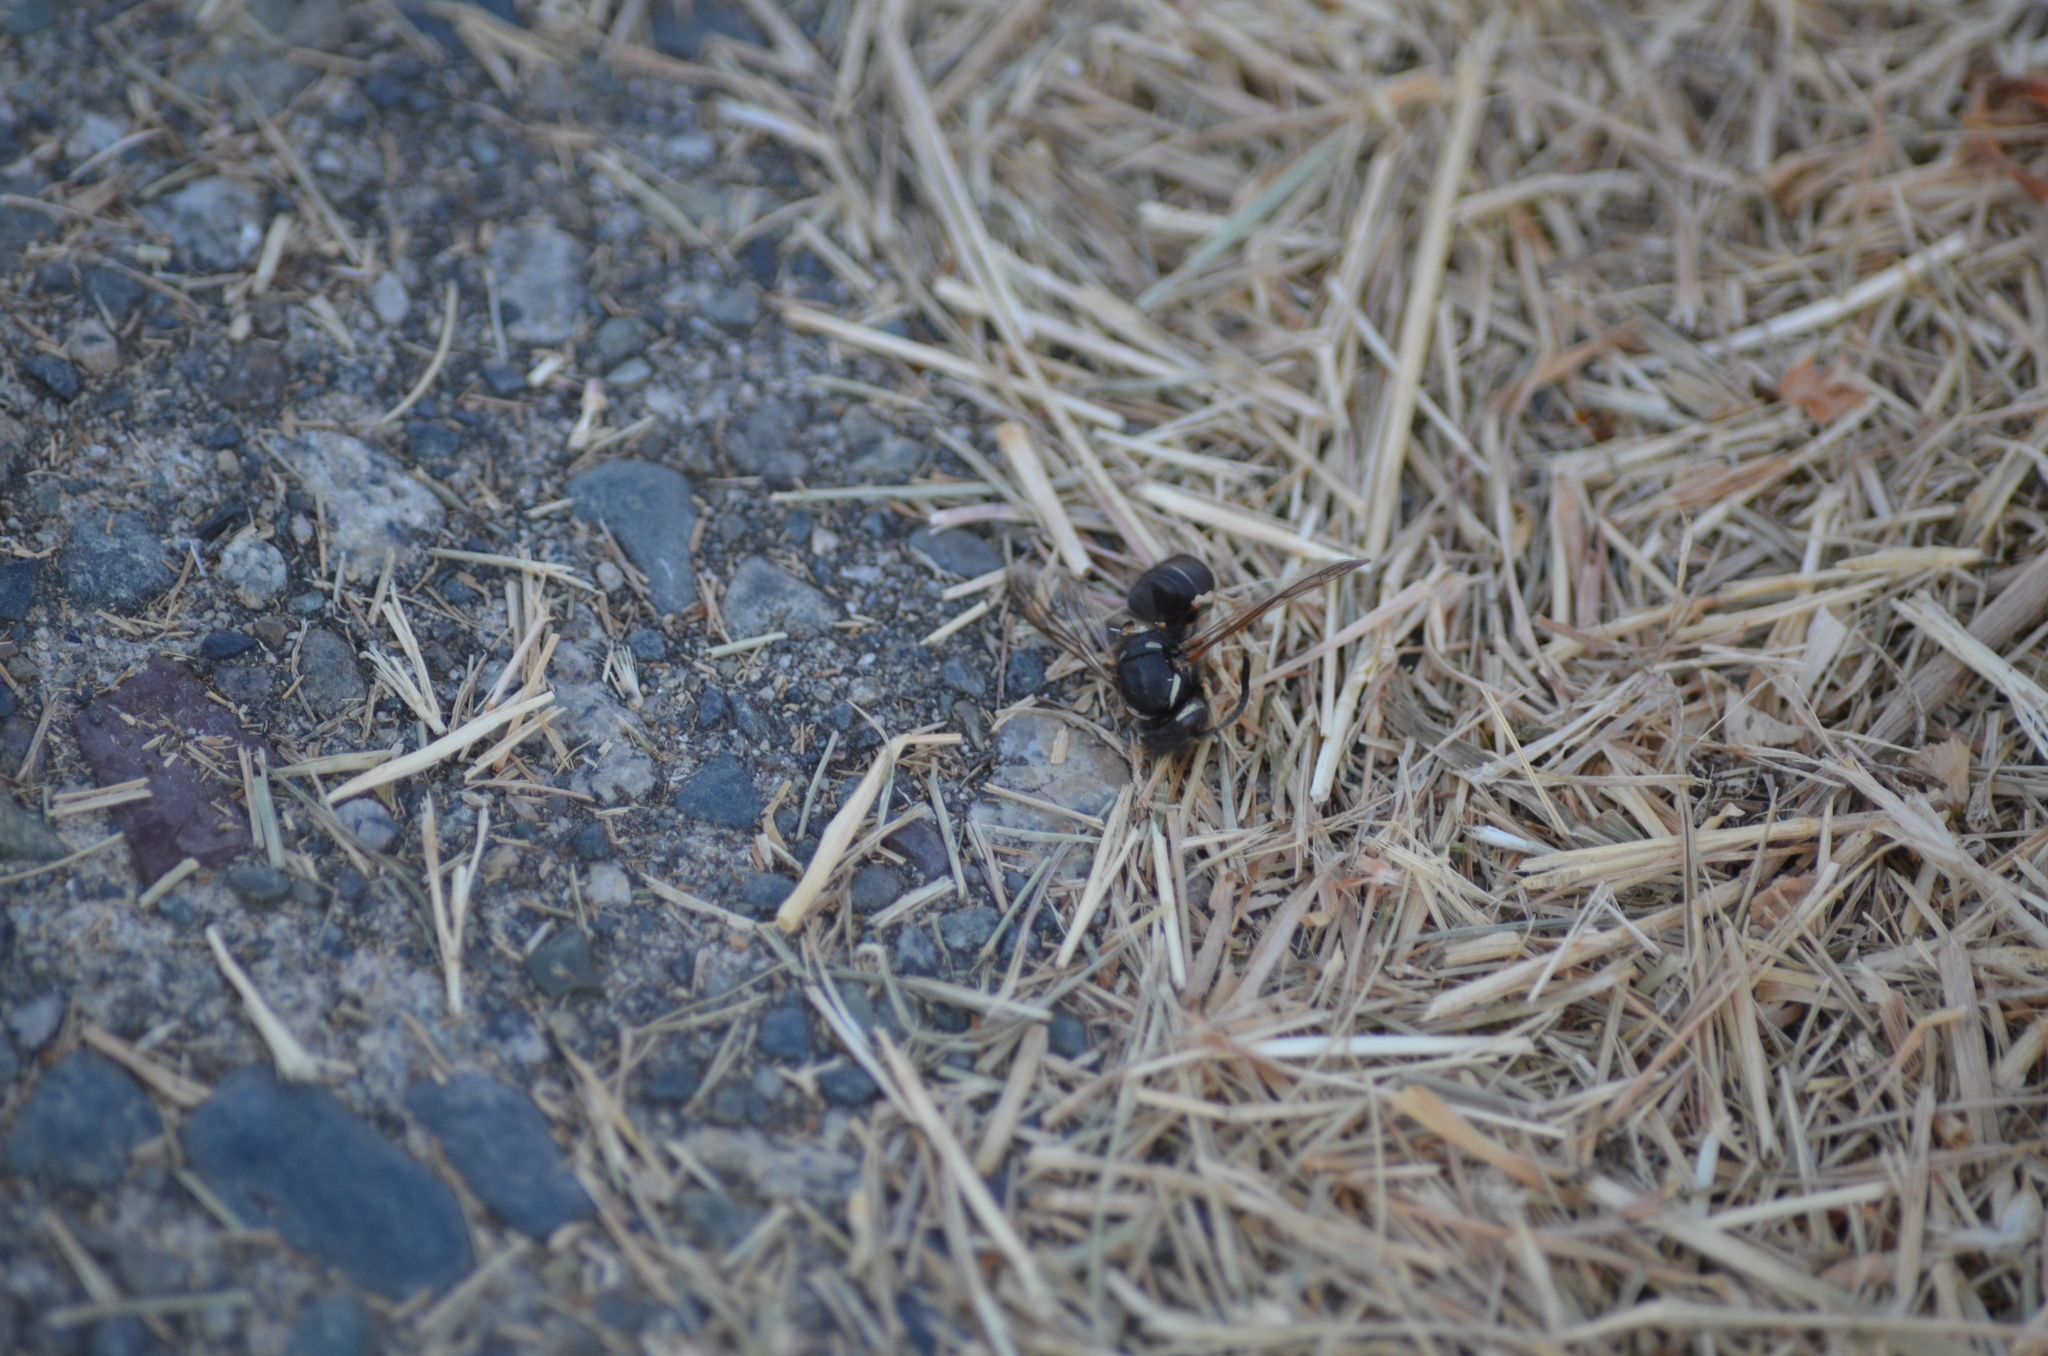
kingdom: Animalia
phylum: Arthropoda
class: Insecta
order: Hymenoptera
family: Vespidae
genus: Vespula
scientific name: Vespula consobrina
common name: Blackjacket
